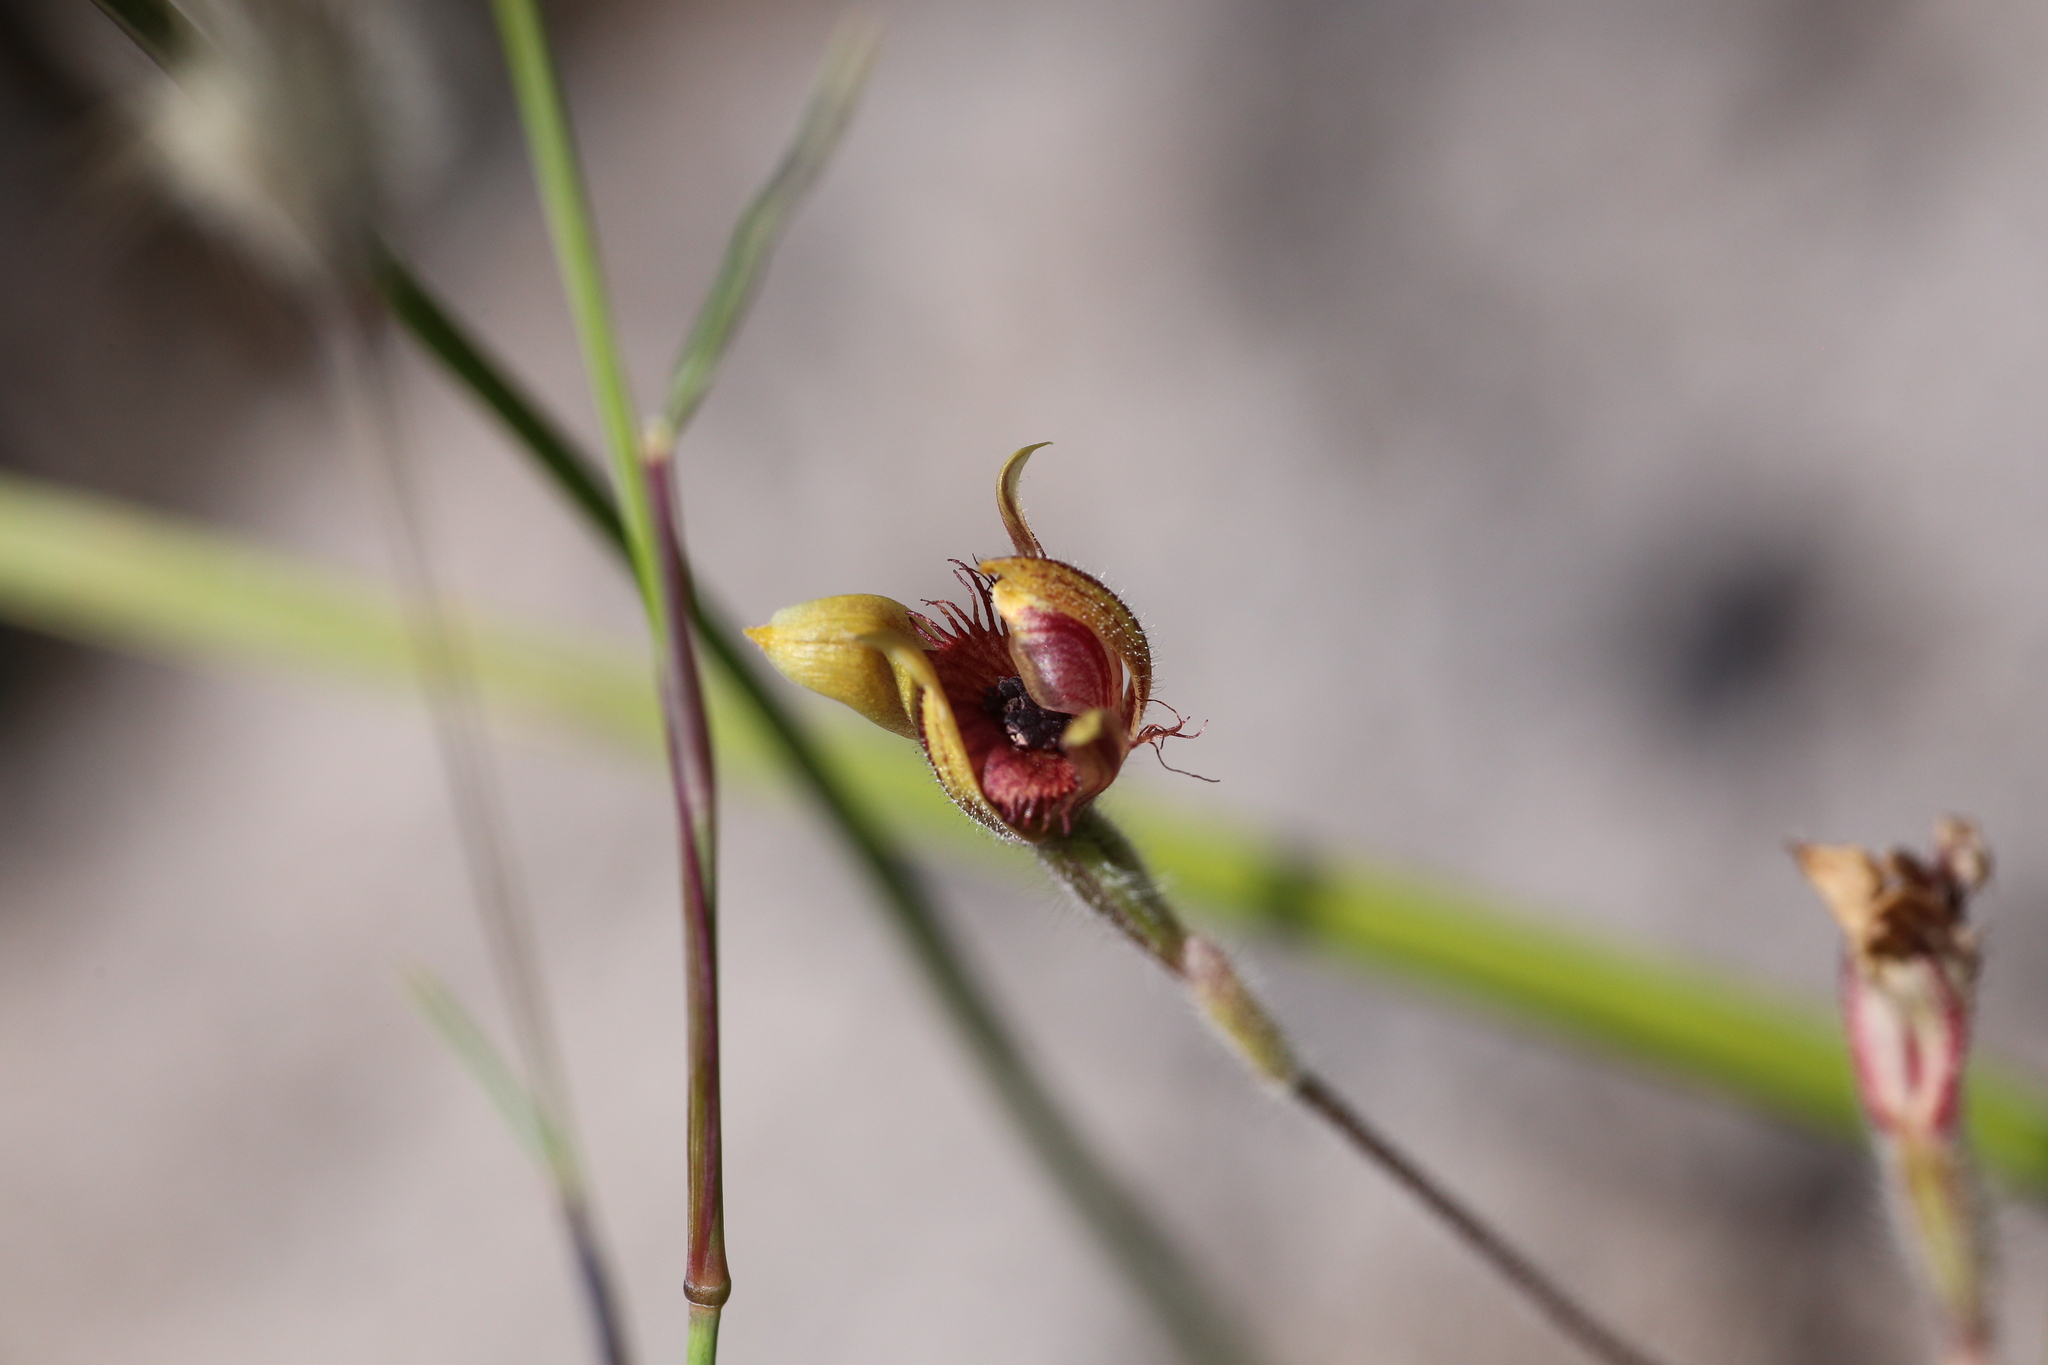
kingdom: Plantae
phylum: Tracheophyta
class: Liliopsida
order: Asparagales
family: Orchidaceae
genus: Caladenia
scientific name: Caladenia discoidea
